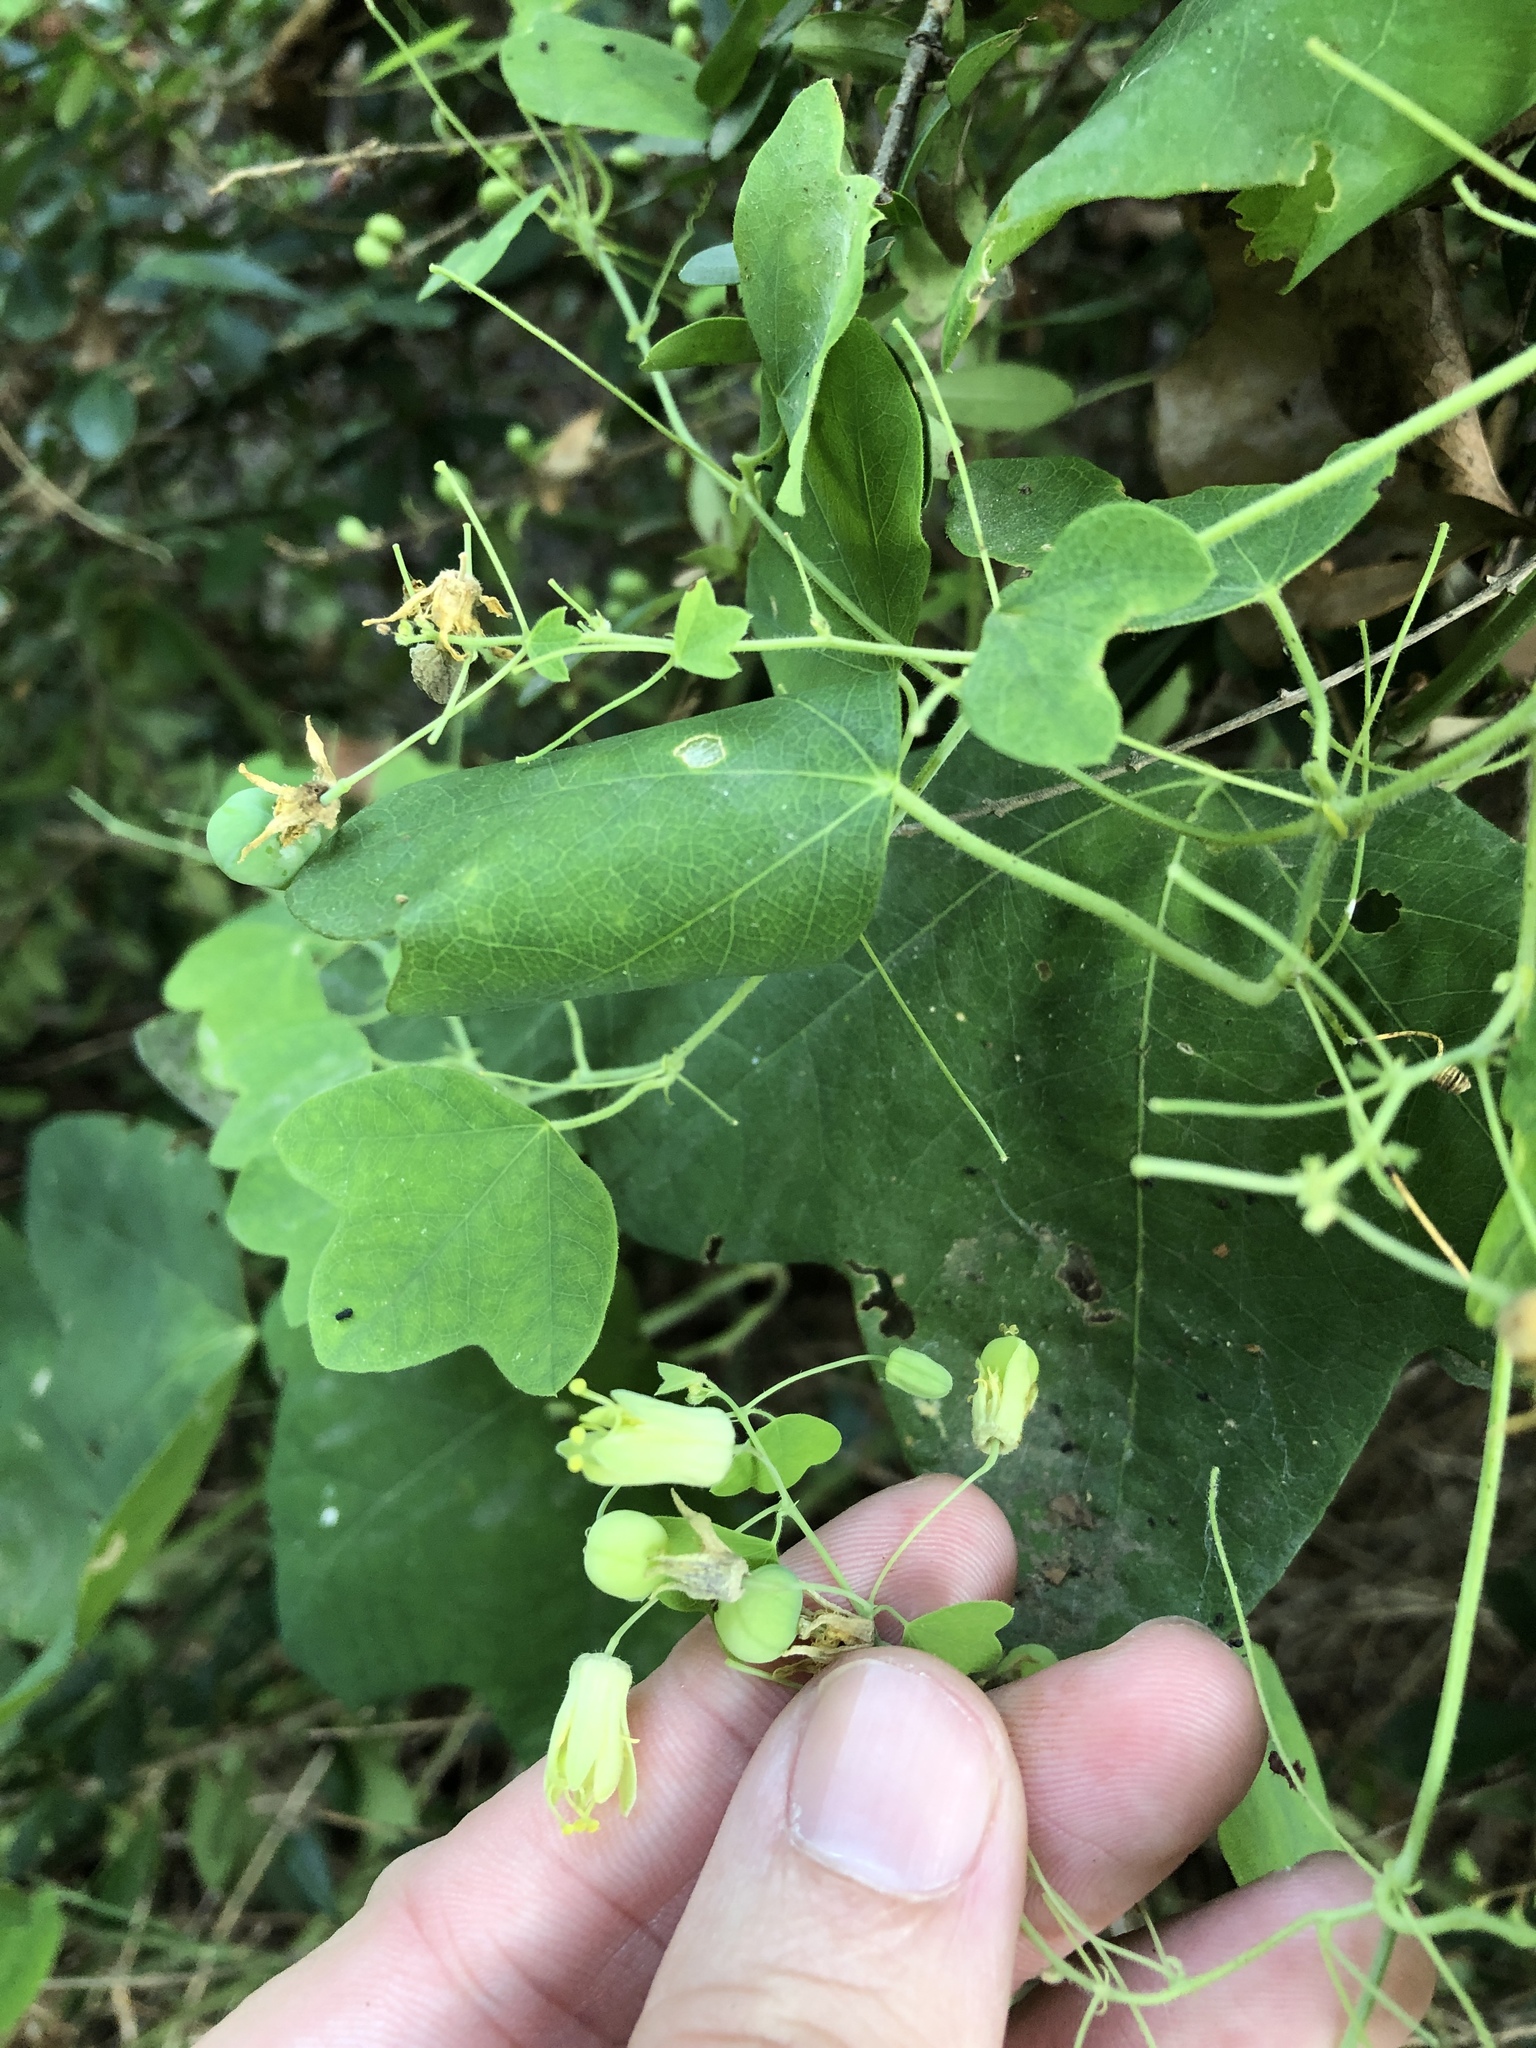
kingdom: Plantae
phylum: Tracheophyta
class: Magnoliopsida
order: Malpighiales
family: Passifloraceae
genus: Passiflora
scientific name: Passiflora lutea
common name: Yellow passionflower
